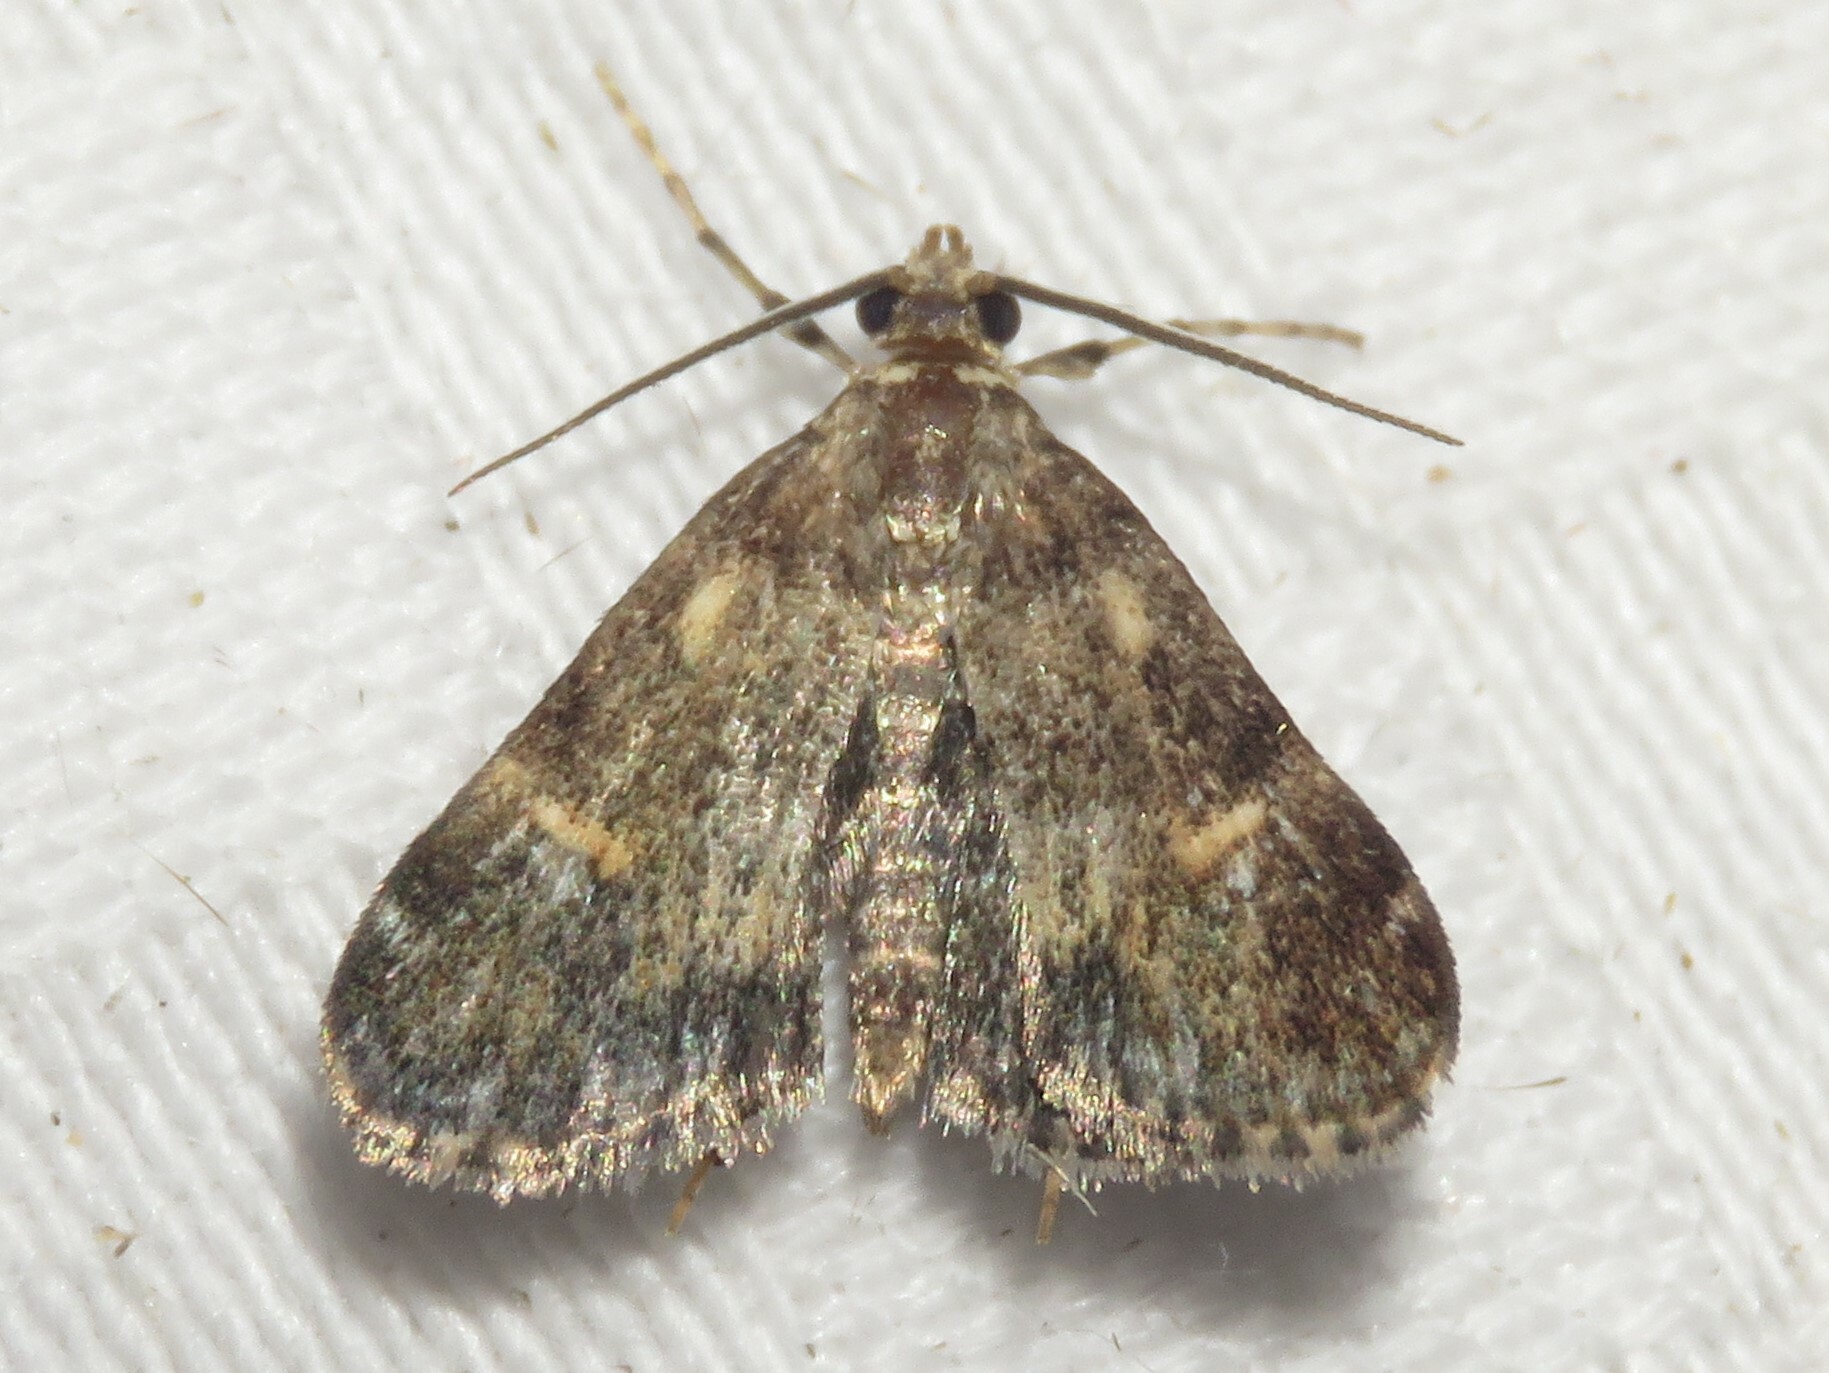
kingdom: Animalia
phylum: Arthropoda
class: Insecta
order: Lepidoptera
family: Crambidae
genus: Elophila
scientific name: Elophila obliteralis
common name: Waterlily leafcutter moth
